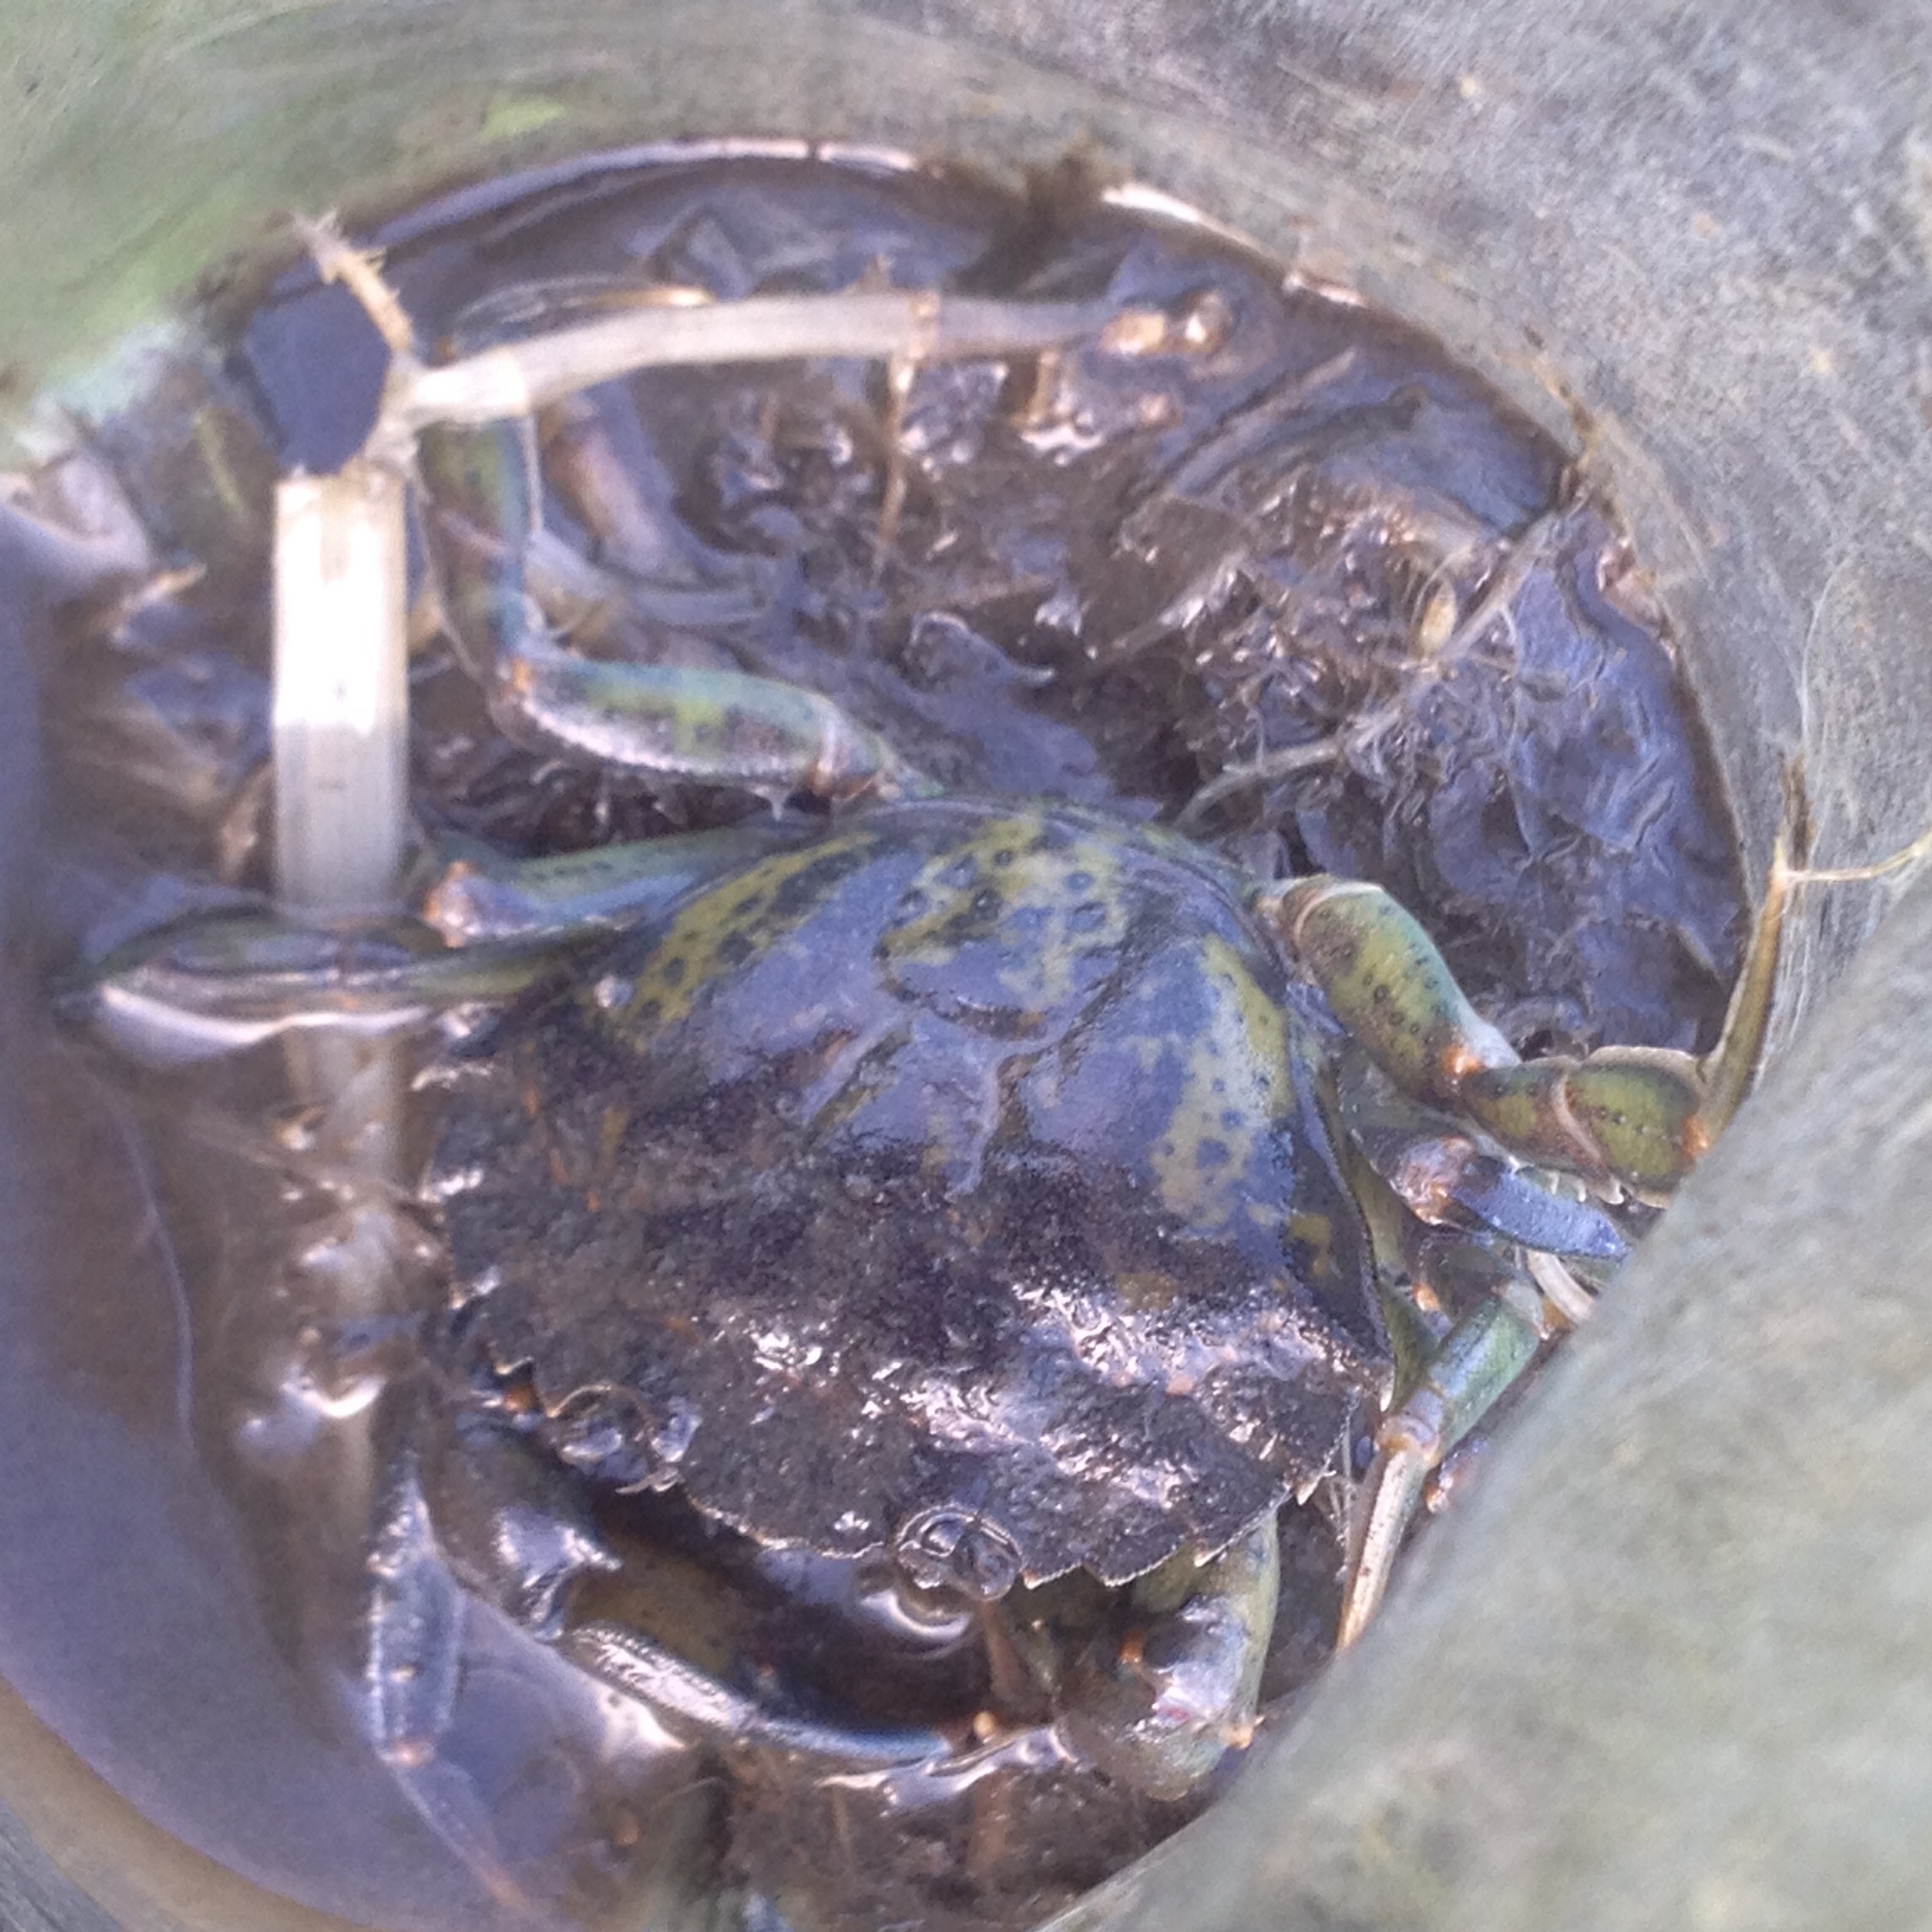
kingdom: Animalia
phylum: Arthropoda
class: Malacostraca
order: Decapoda
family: Carcinidae
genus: Carcinus
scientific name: Carcinus maenas
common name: European green crab
